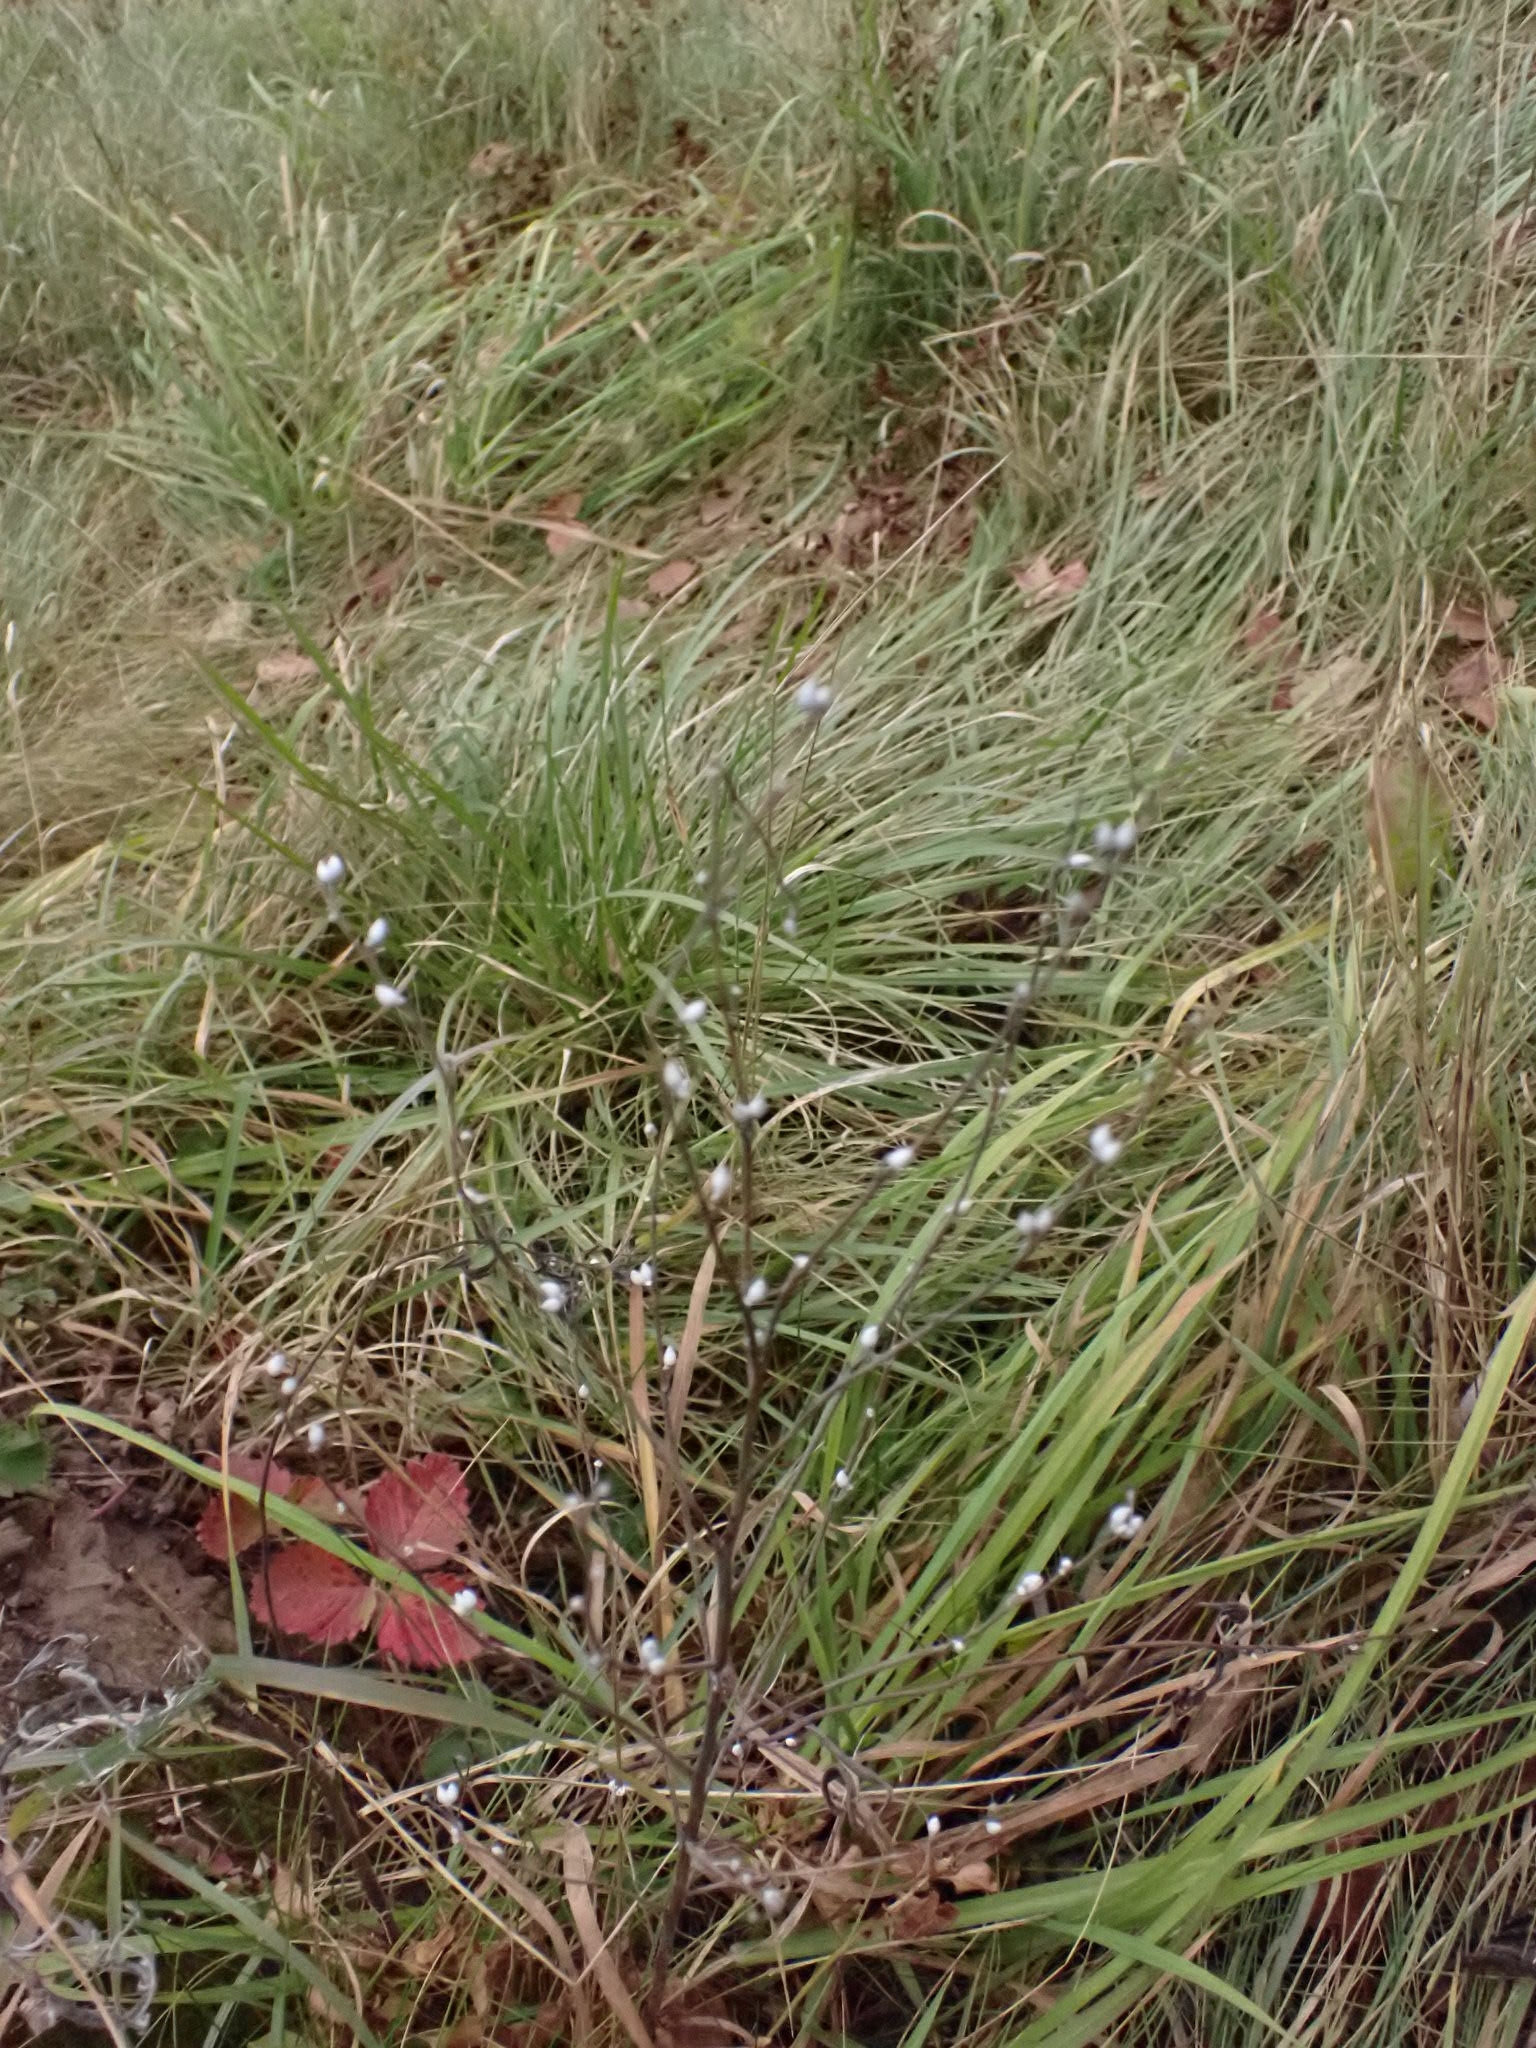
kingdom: Plantae
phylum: Tracheophyta
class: Magnoliopsida
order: Boraginales
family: Boraginaceae
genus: Lithospermum
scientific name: Lithospermum officinale
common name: Common gromwell
